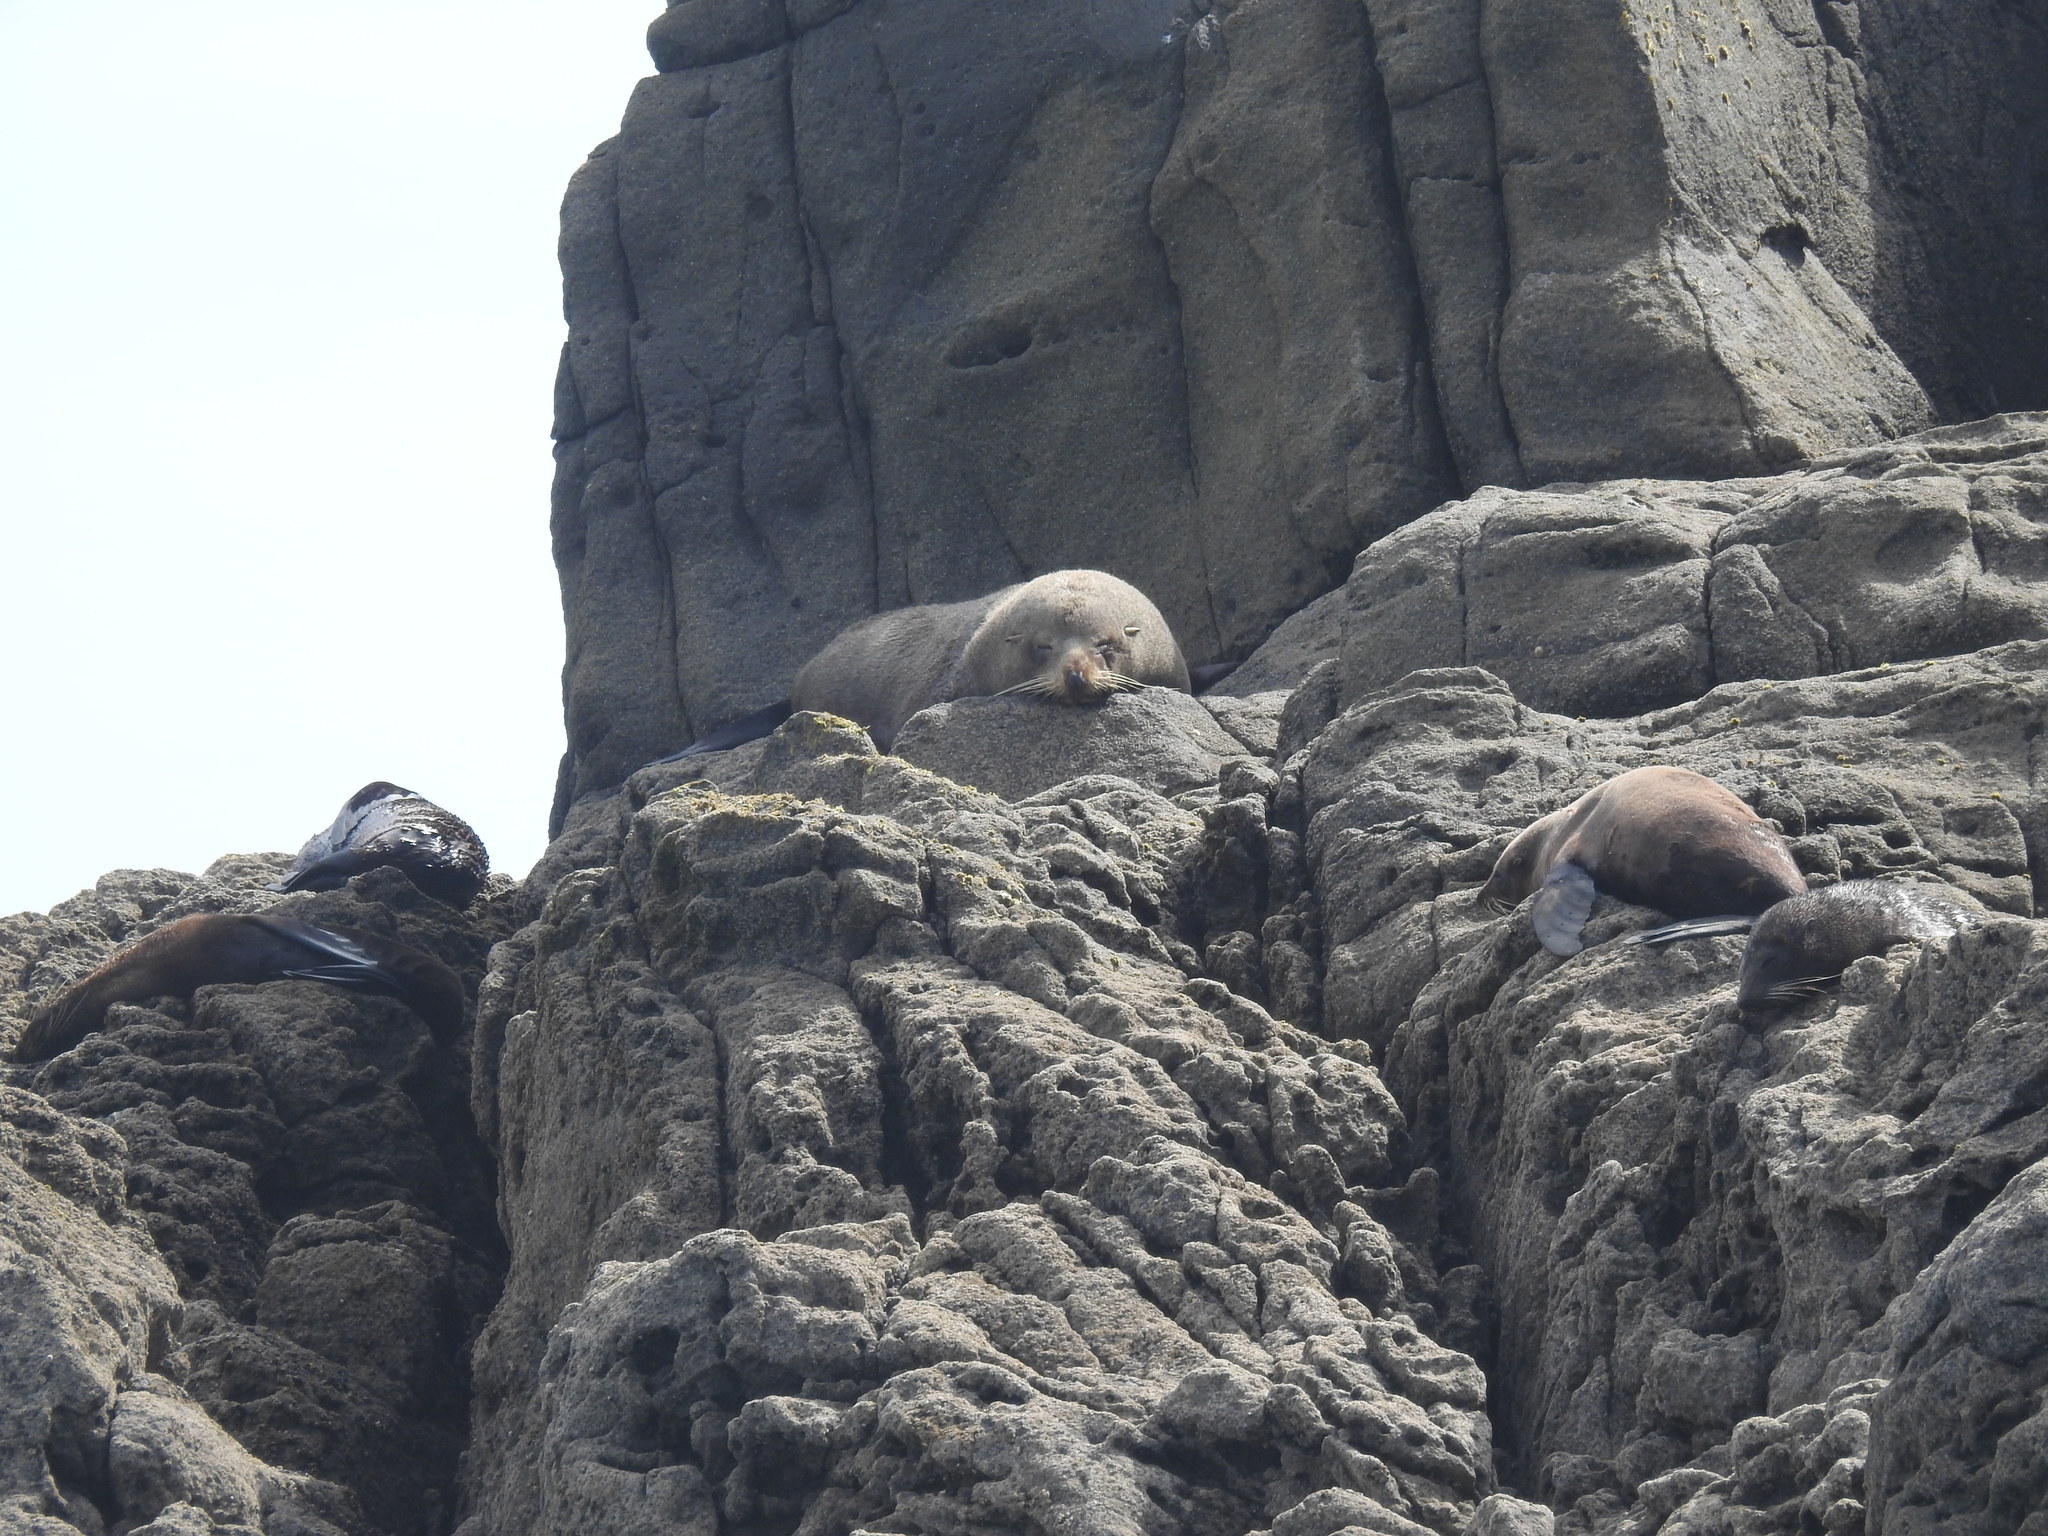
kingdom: Animalia
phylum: Chordata
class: Mammalia
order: Carnivora
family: Otariidae
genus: Arctocephalus
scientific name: Arctocephalus forsteri
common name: New zealand fur seal
